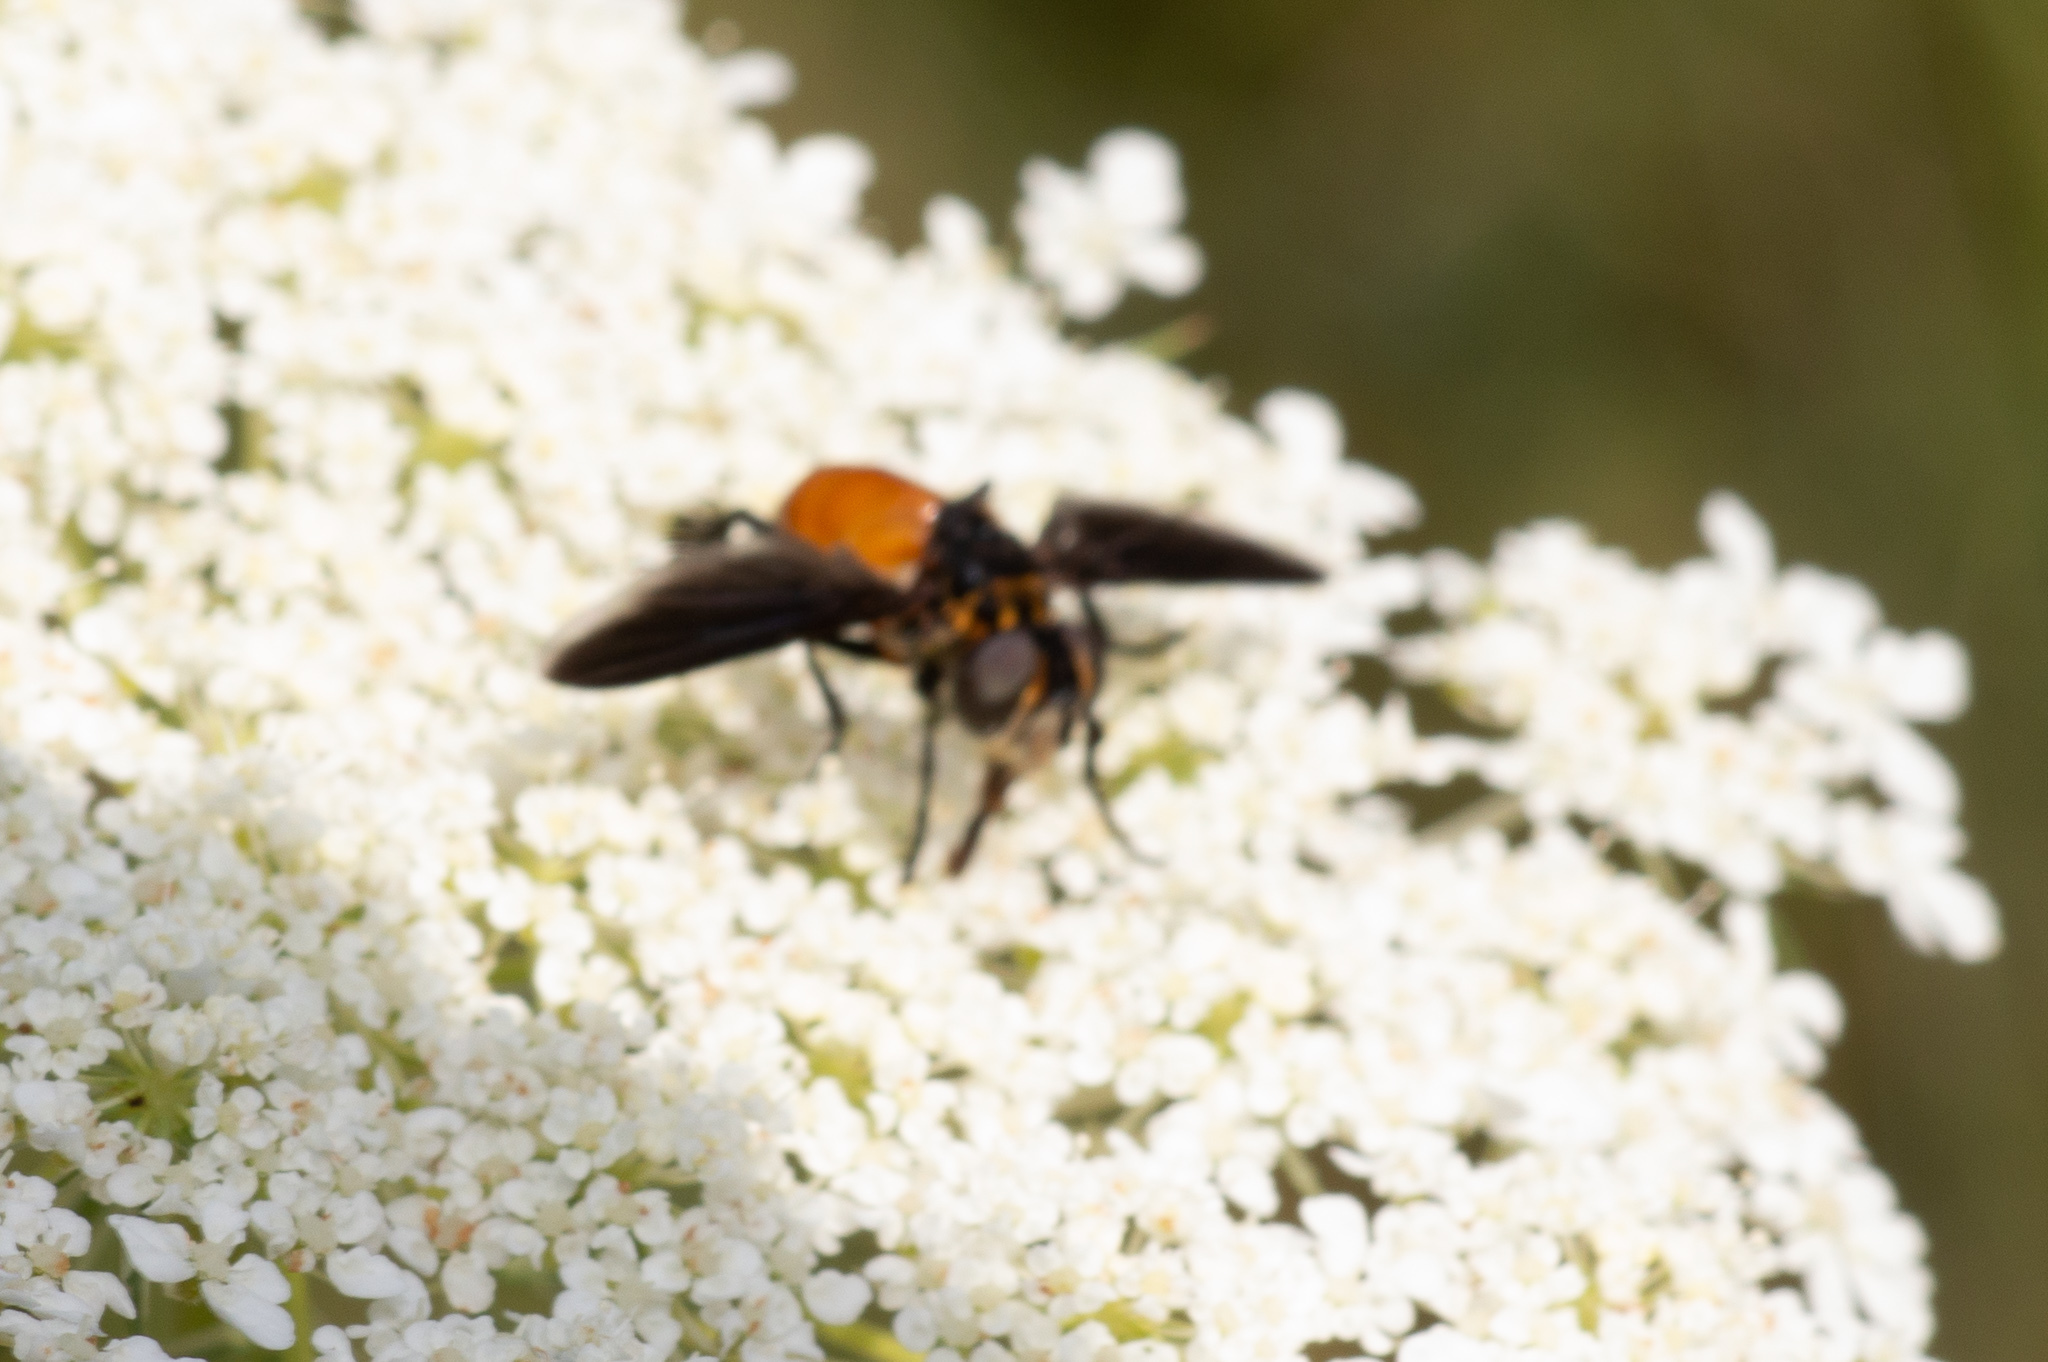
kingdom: Animalia
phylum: Arthropoda
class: Insecta
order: Diptera
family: Tachinidae
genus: Trichopoda
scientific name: Trichopoda pennipes
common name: Tachinid fly
